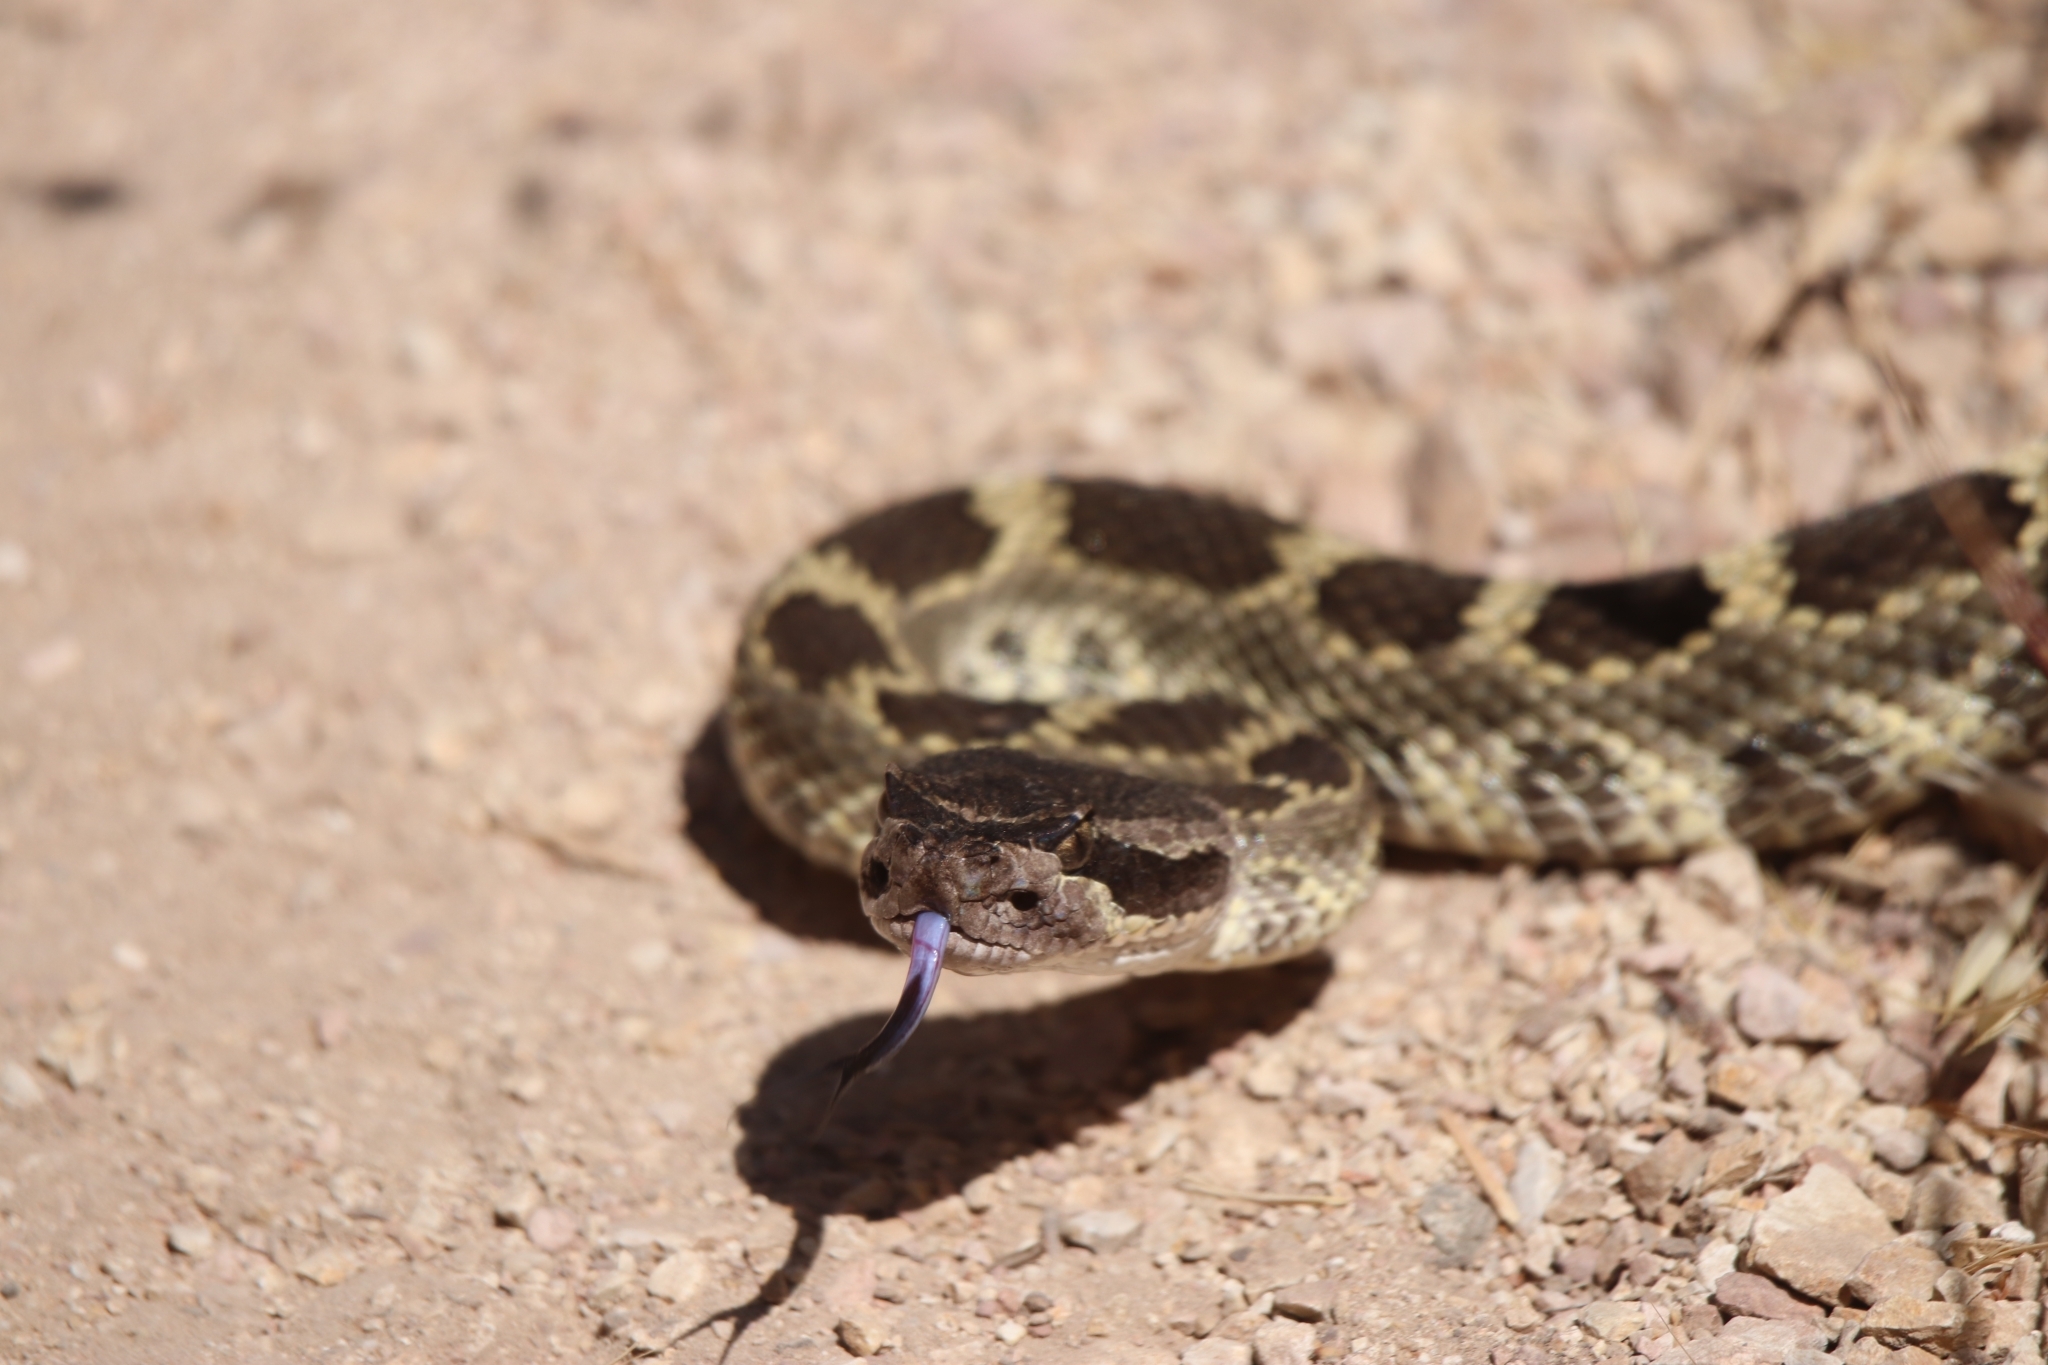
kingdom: Animalia
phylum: Chordata
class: Squamata
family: Viperidae
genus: Crotalus
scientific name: Crotalus oreganus
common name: Abyssus
